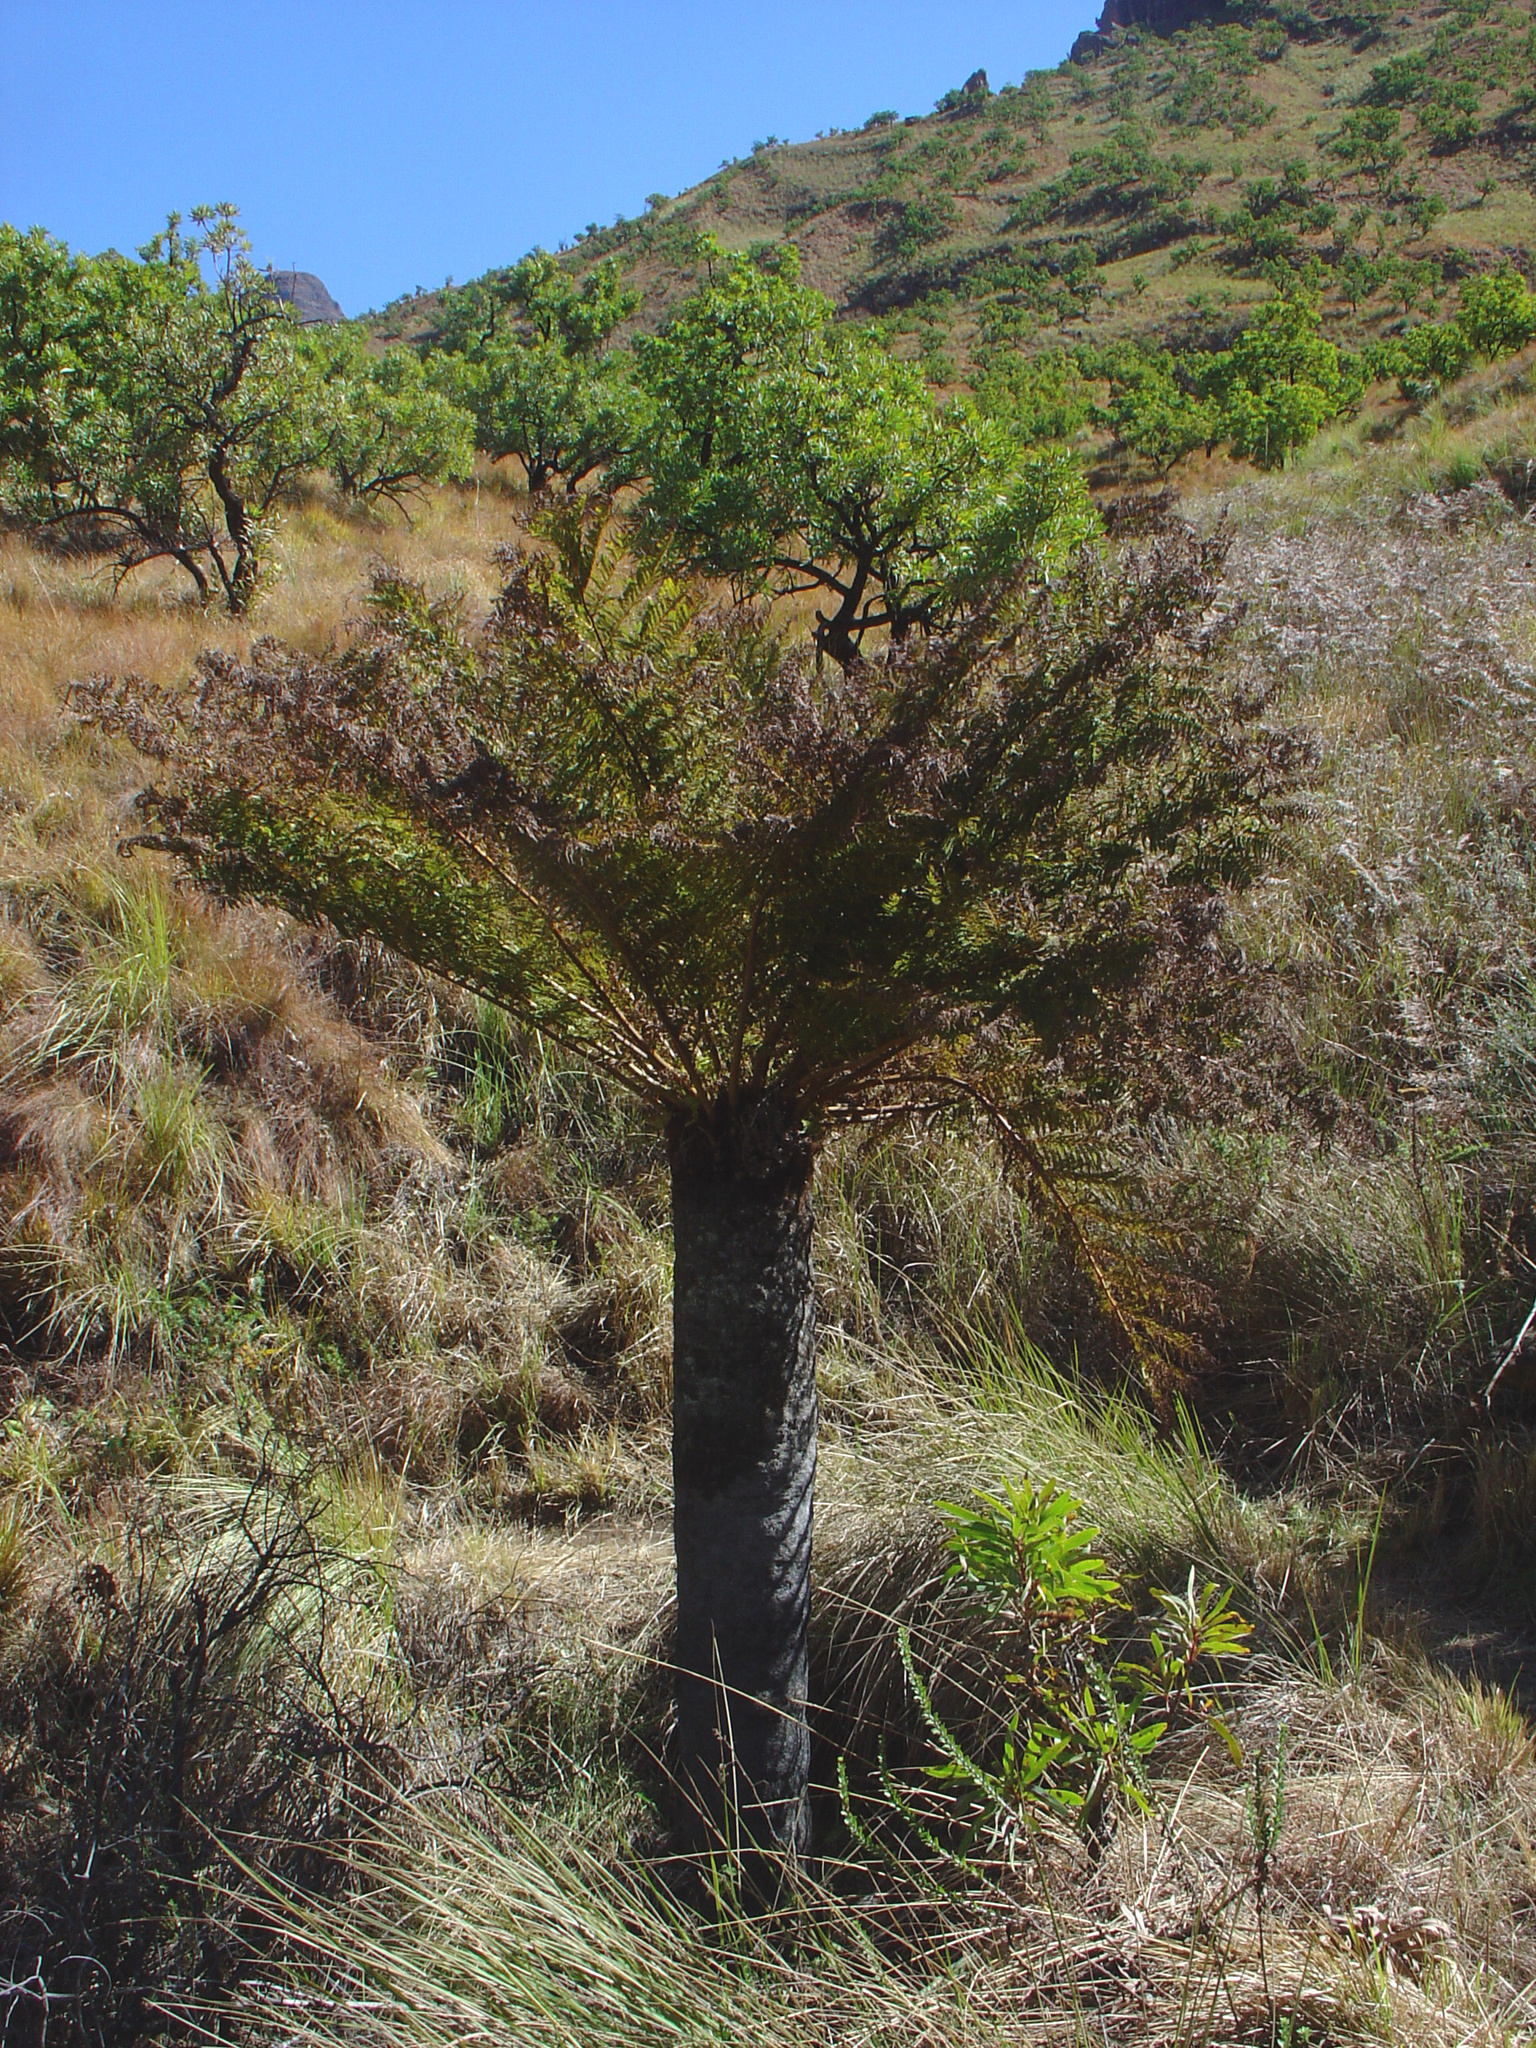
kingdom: Plantae
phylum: Tracheophyta
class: Polypodiopsida
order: Cyatheales
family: Cyatheaceae
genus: Alsophila
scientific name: Alsophila dregei
